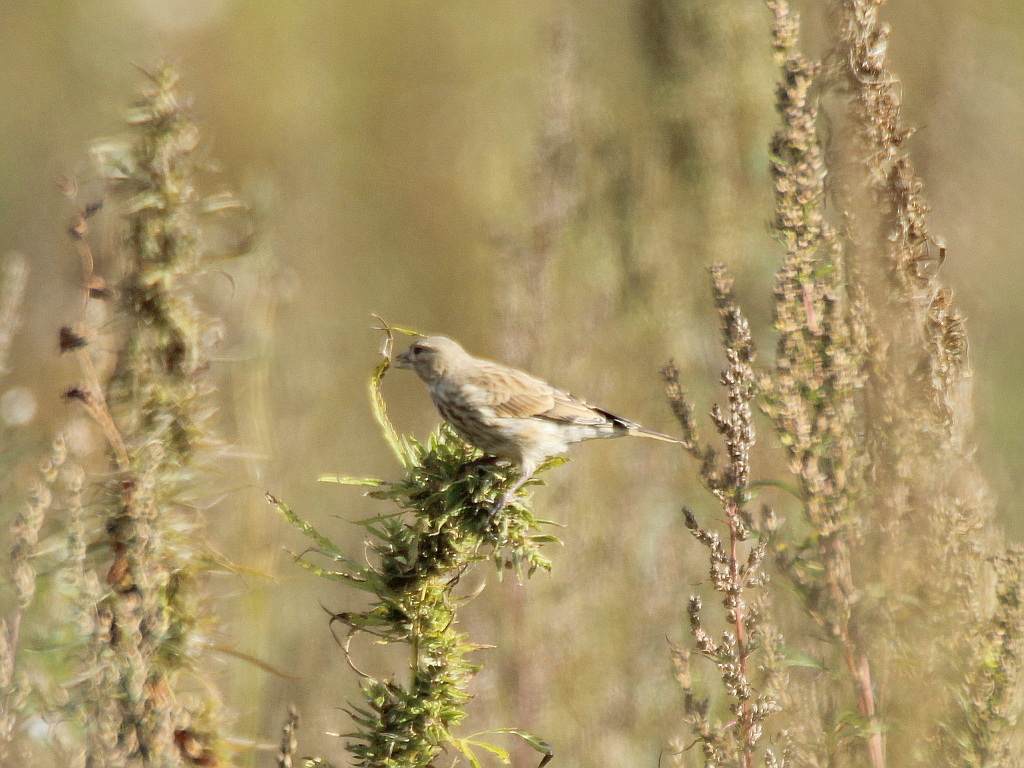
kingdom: Animalia
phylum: Chordata
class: Aves
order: Passeriformes
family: Fringillidae
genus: Linaria
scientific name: Linaria cannabina
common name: Common linnet
